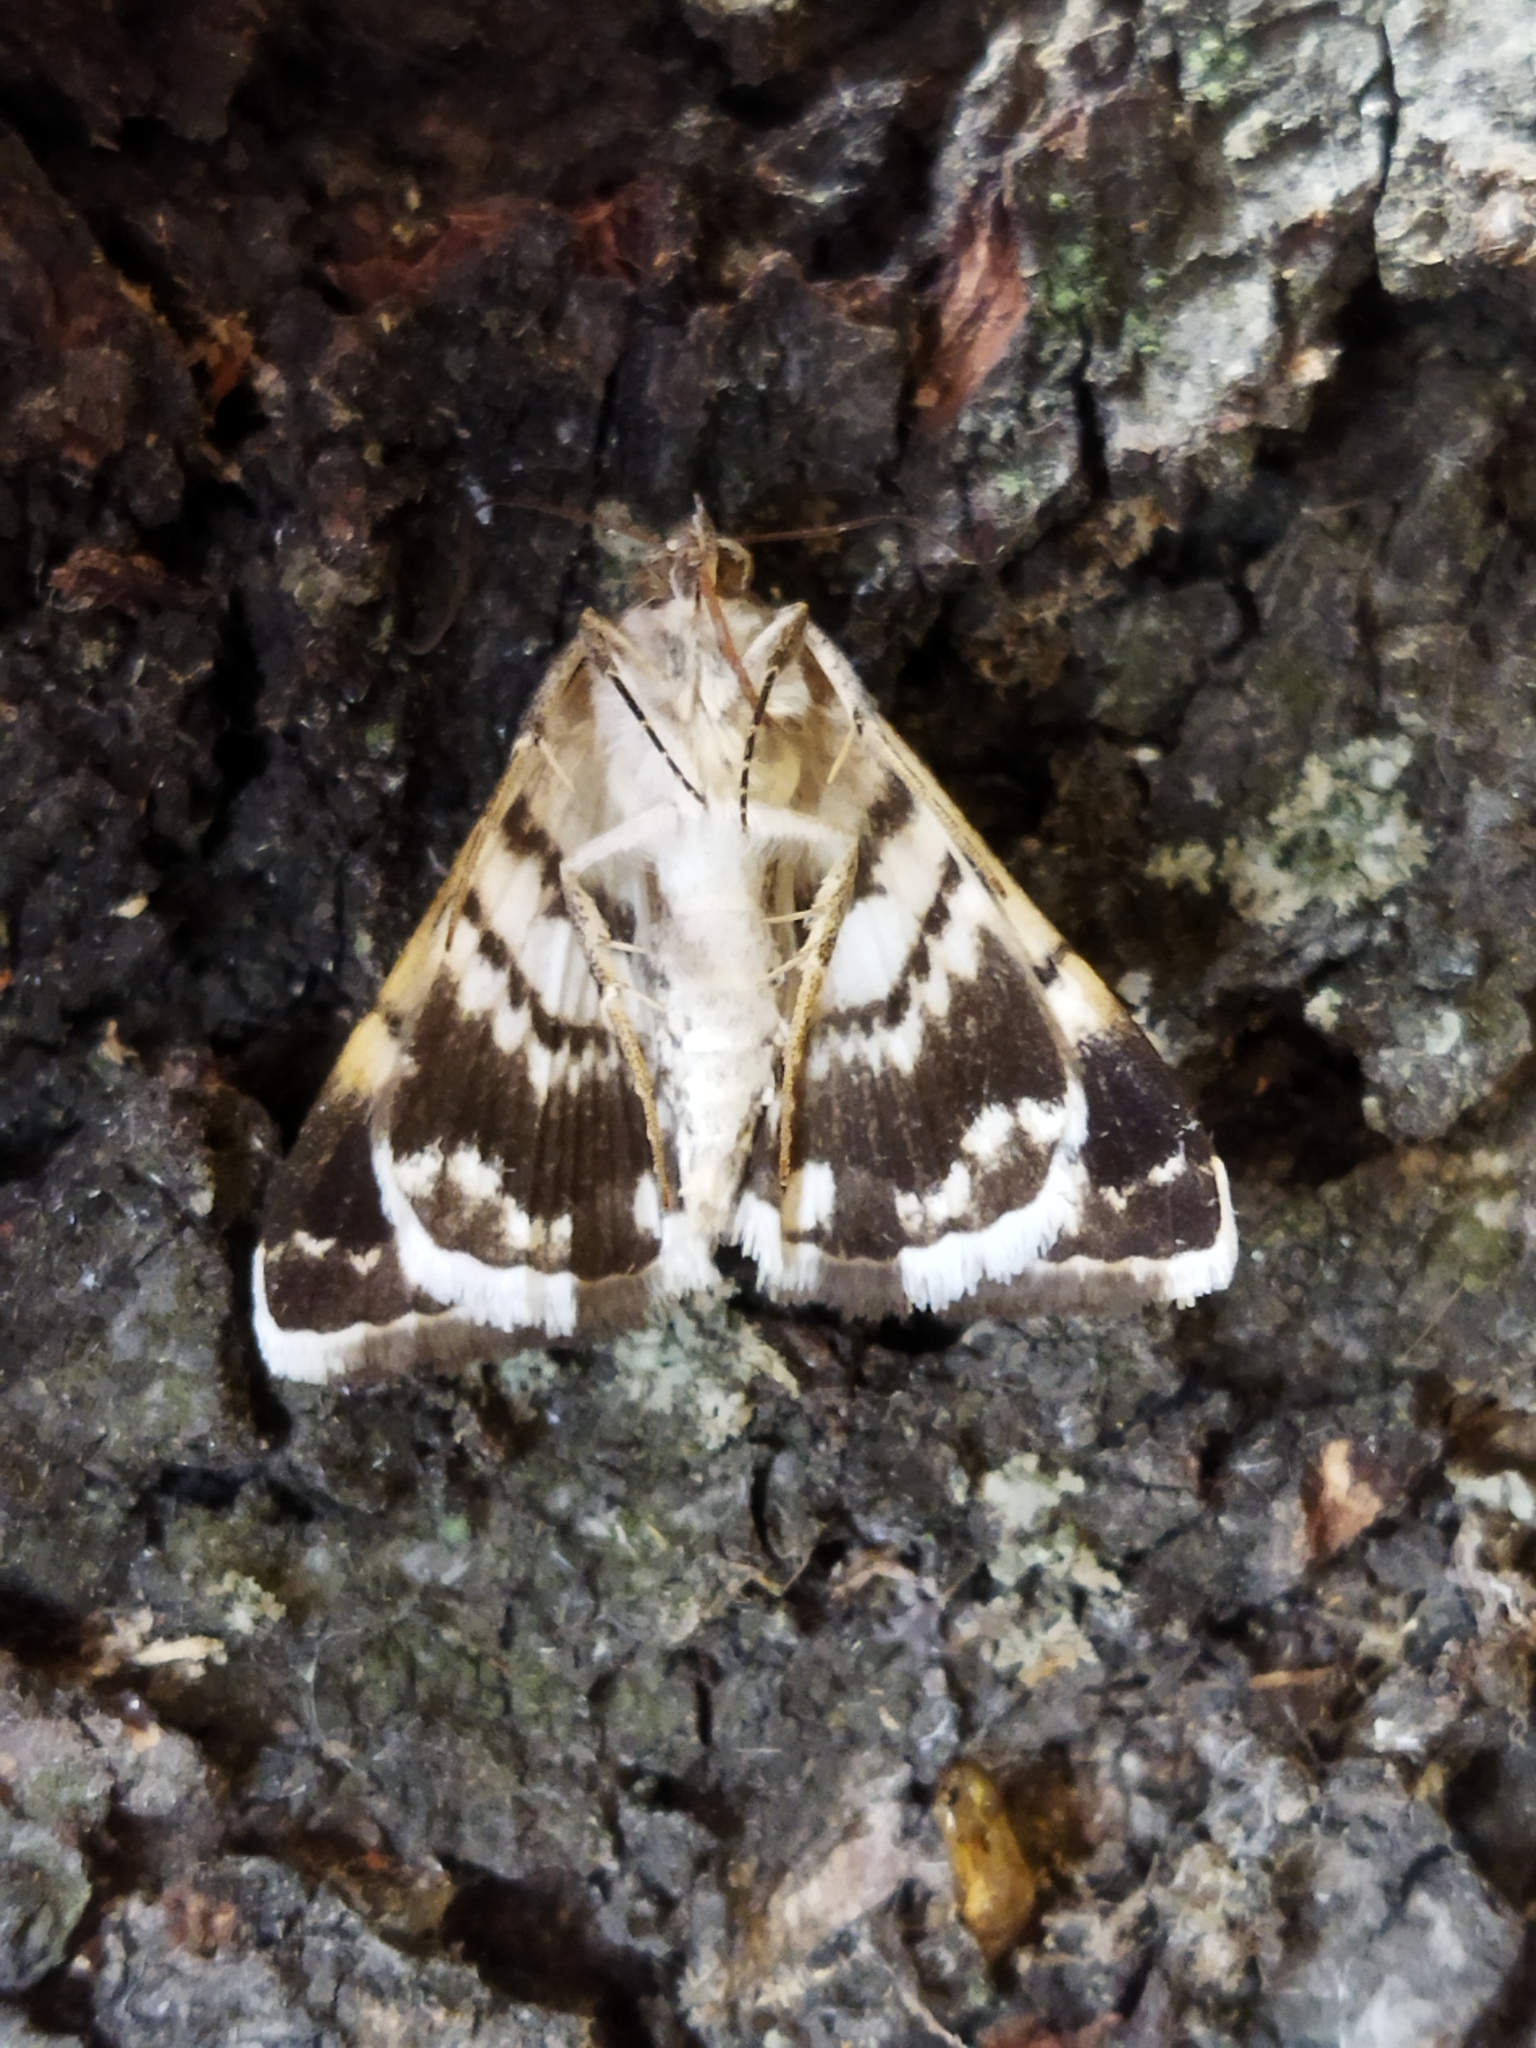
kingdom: Animalia
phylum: Arthropoda
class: Insecta
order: Lepidoptera
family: Erebidae
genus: Grammodes
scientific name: Grammodes stolida
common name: Geometrician
